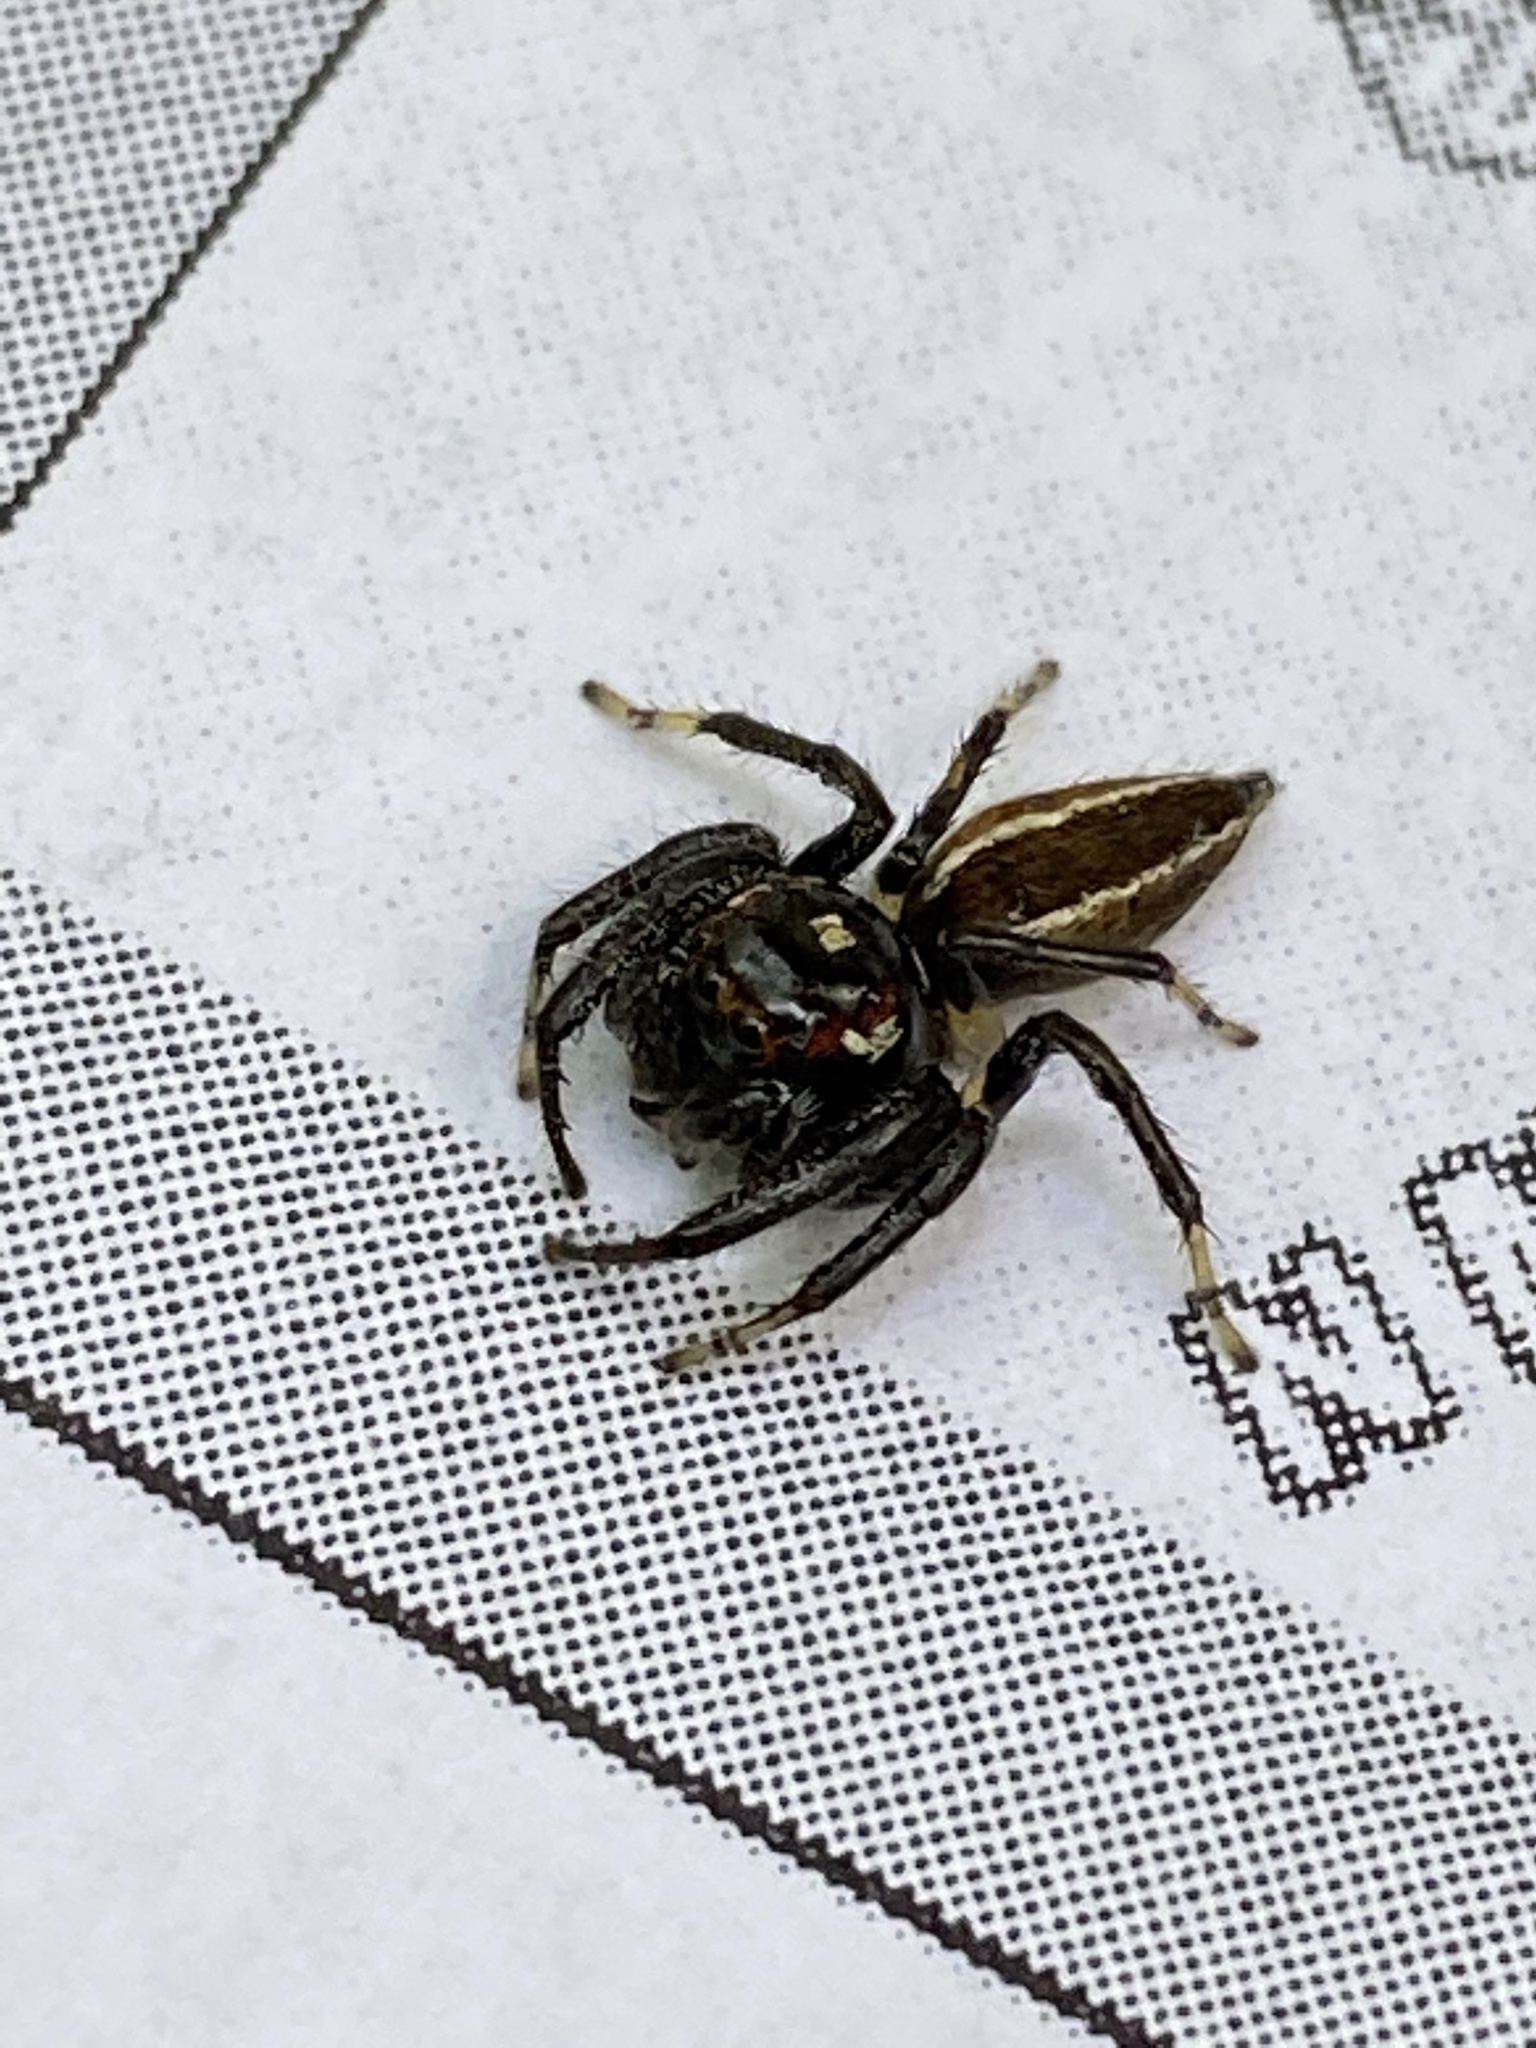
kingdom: Animalia
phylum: Arthropoda
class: Arachnida
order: Araneae
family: Salticidae
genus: Colonus
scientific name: Colonus sylvanus
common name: Jumping spiders
